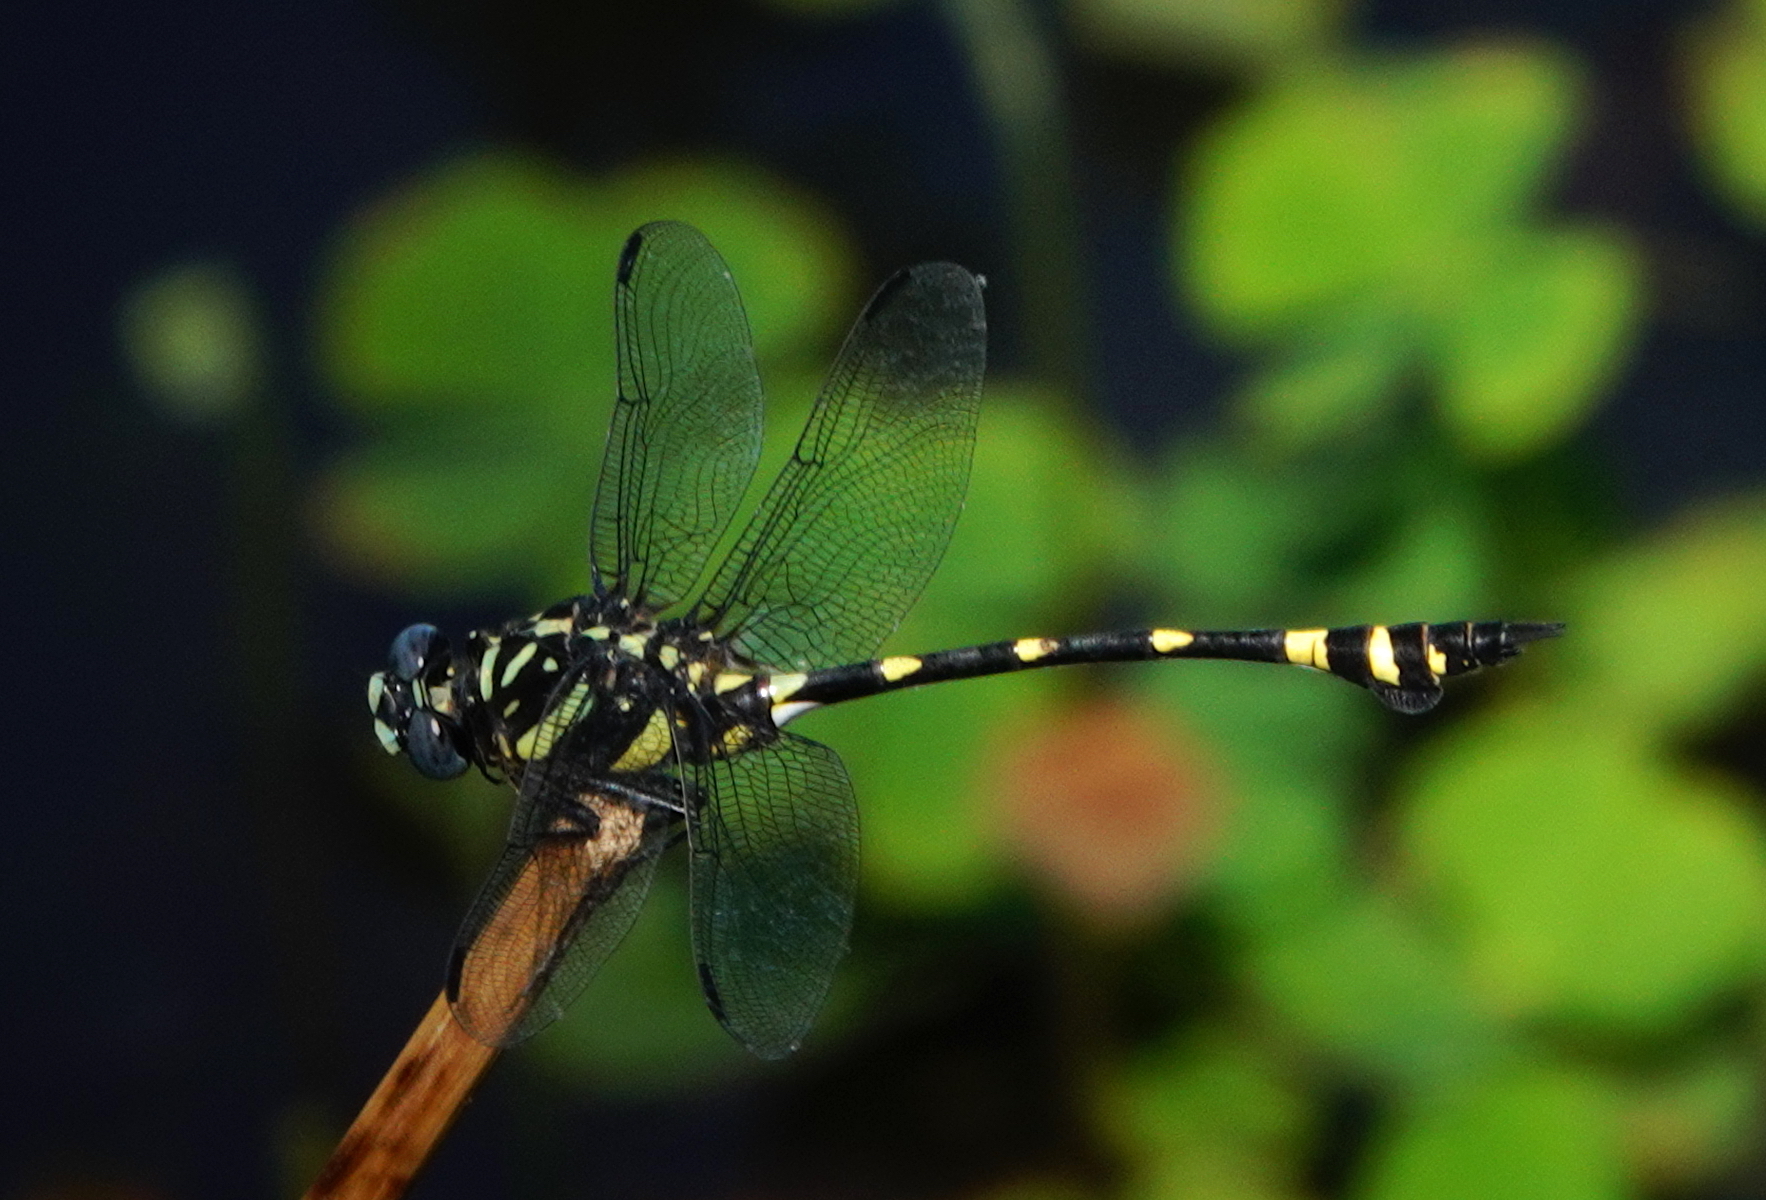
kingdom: Animalia
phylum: Arthropoda
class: Insecta
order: Odonata
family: Gomphidae
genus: Ictinogomphus
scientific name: Ictinogomphus rapax
